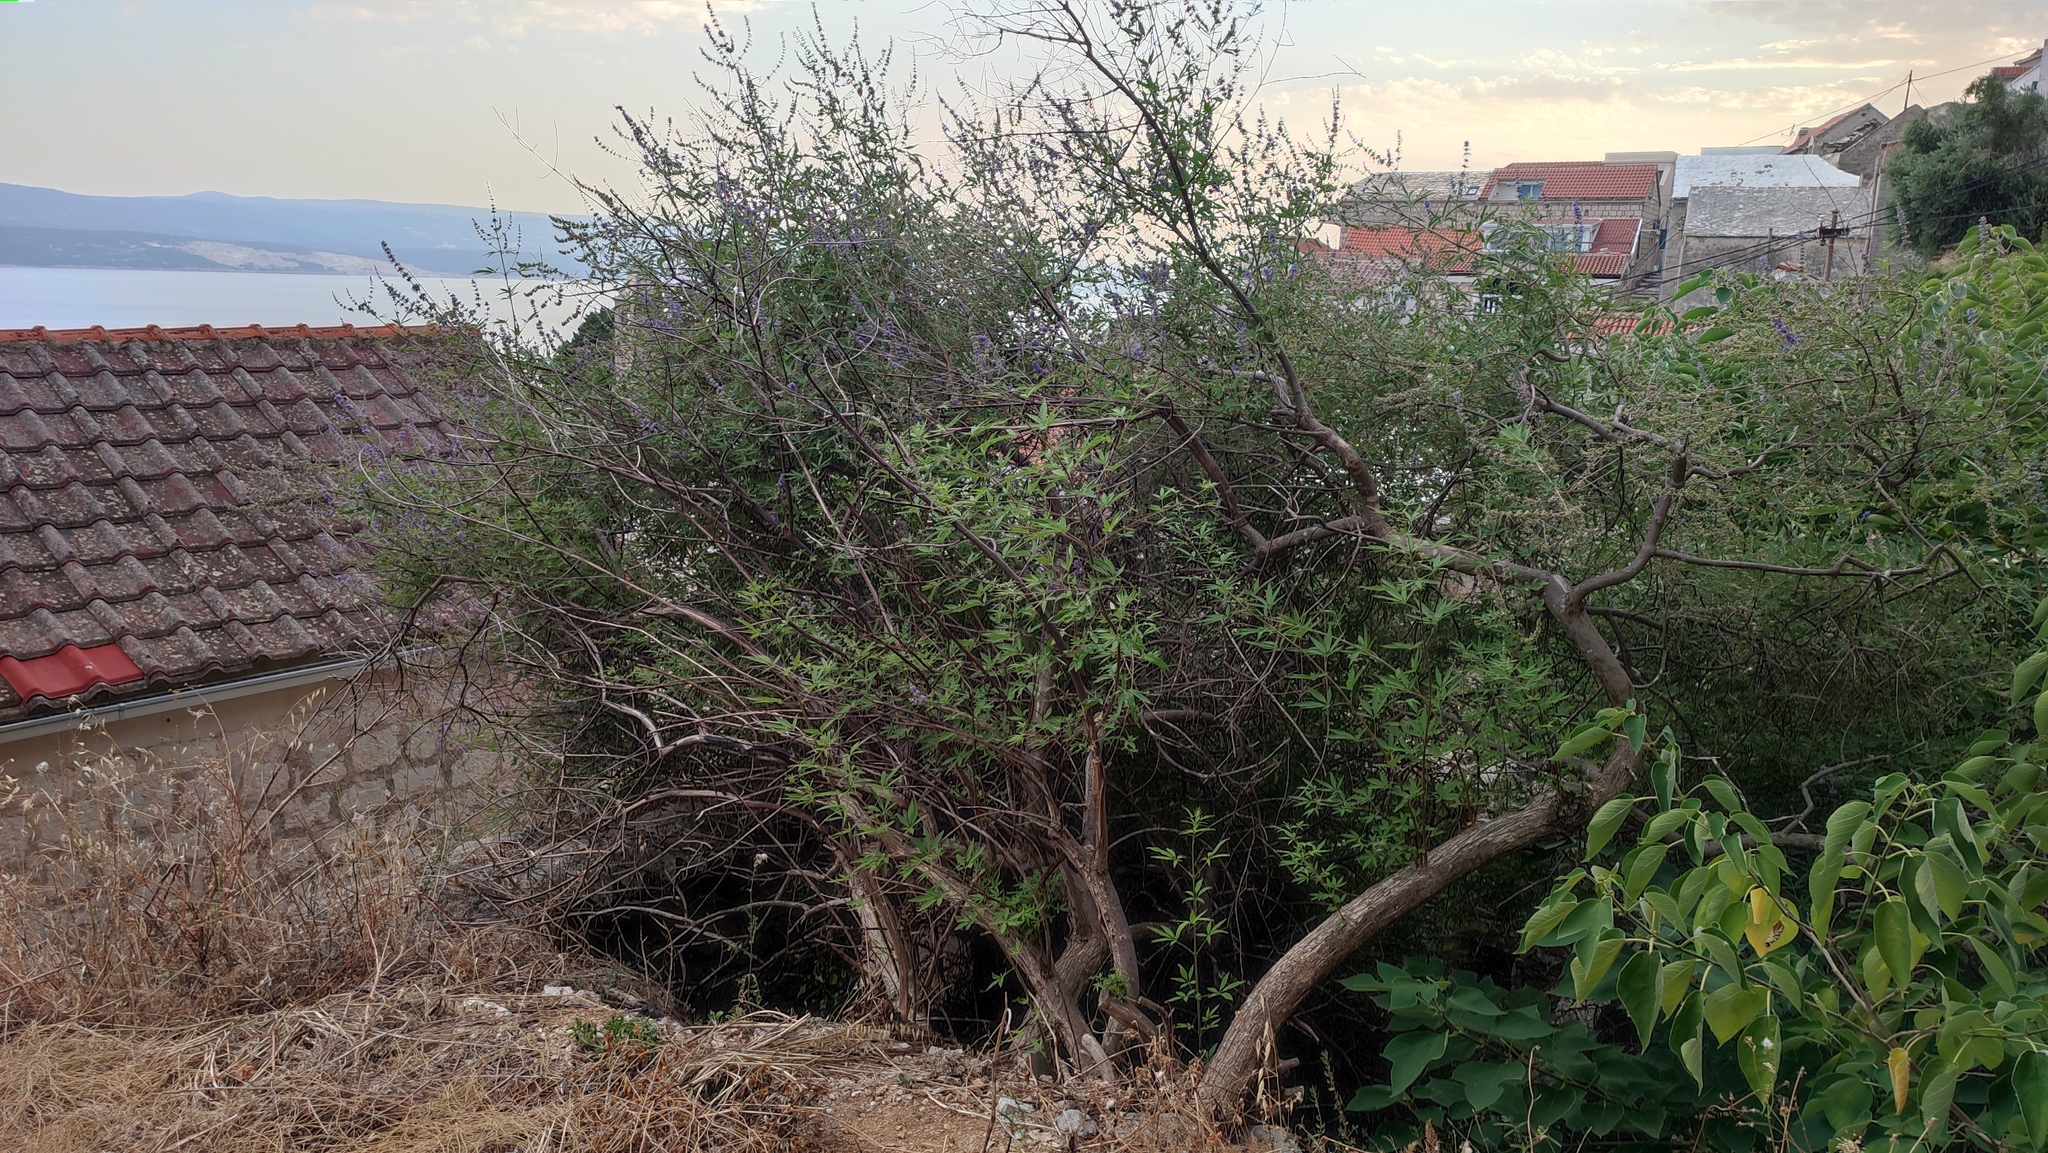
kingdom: Plantae
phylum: Tracheophyta
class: Magnoliopsida
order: Lamiales
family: Lamiaceae
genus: Vitex
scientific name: Vitex agnus-castus
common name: Chasteberry
